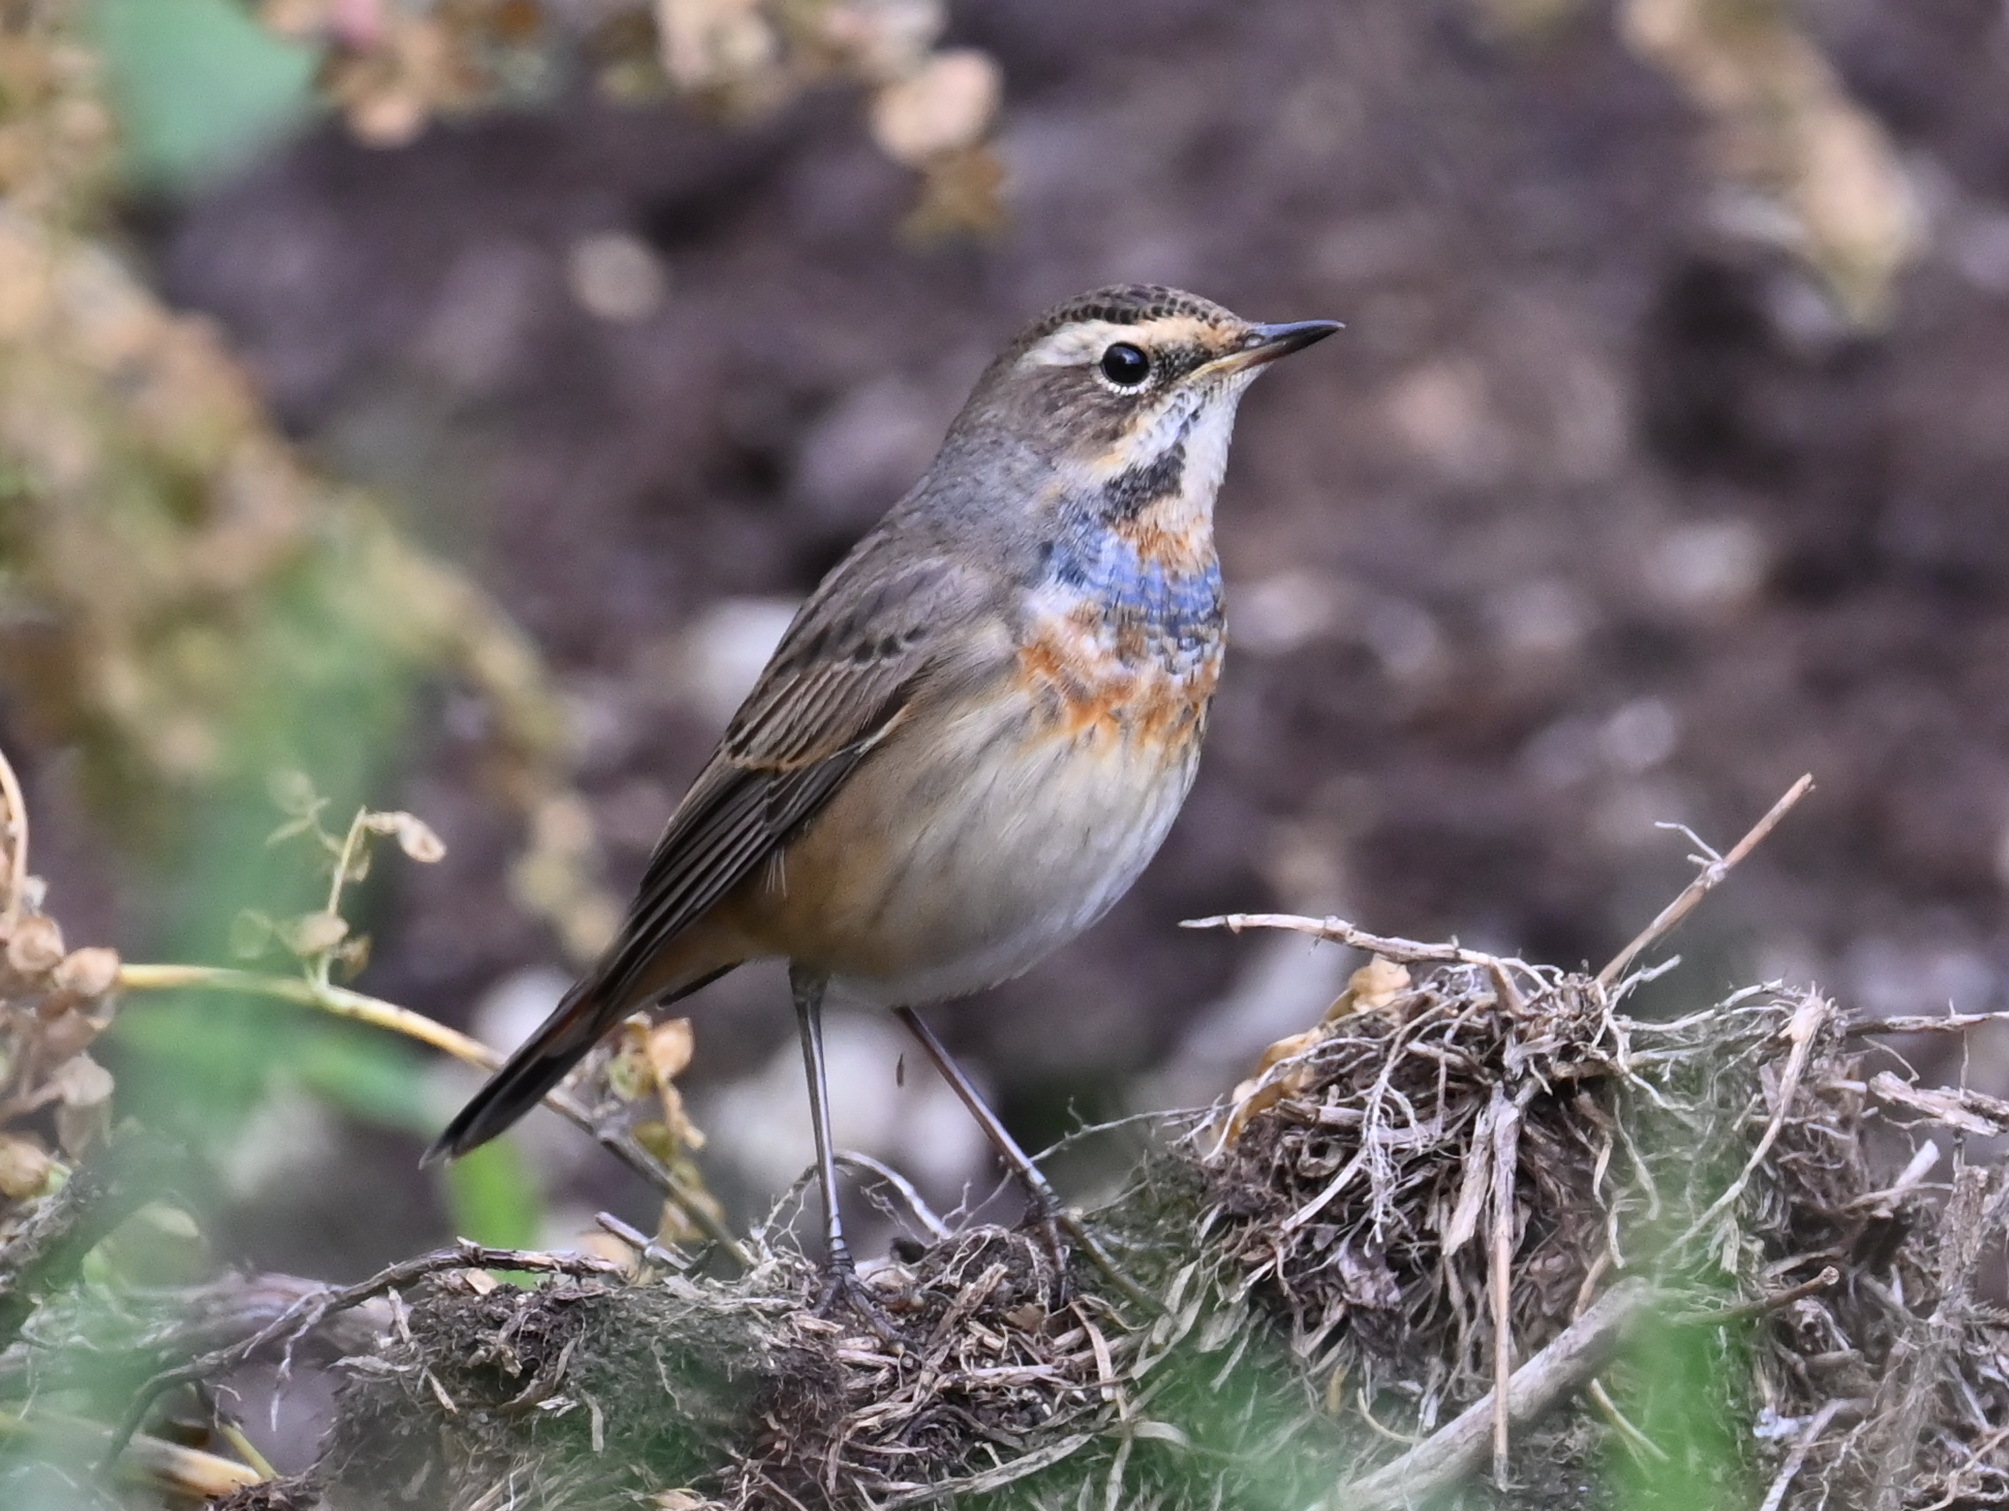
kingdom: Animalia
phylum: Chordata
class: Aves
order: Passeriformes
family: Muscicapidae
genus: Luscinia
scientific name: Luscinia svecica
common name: Bluethroat
